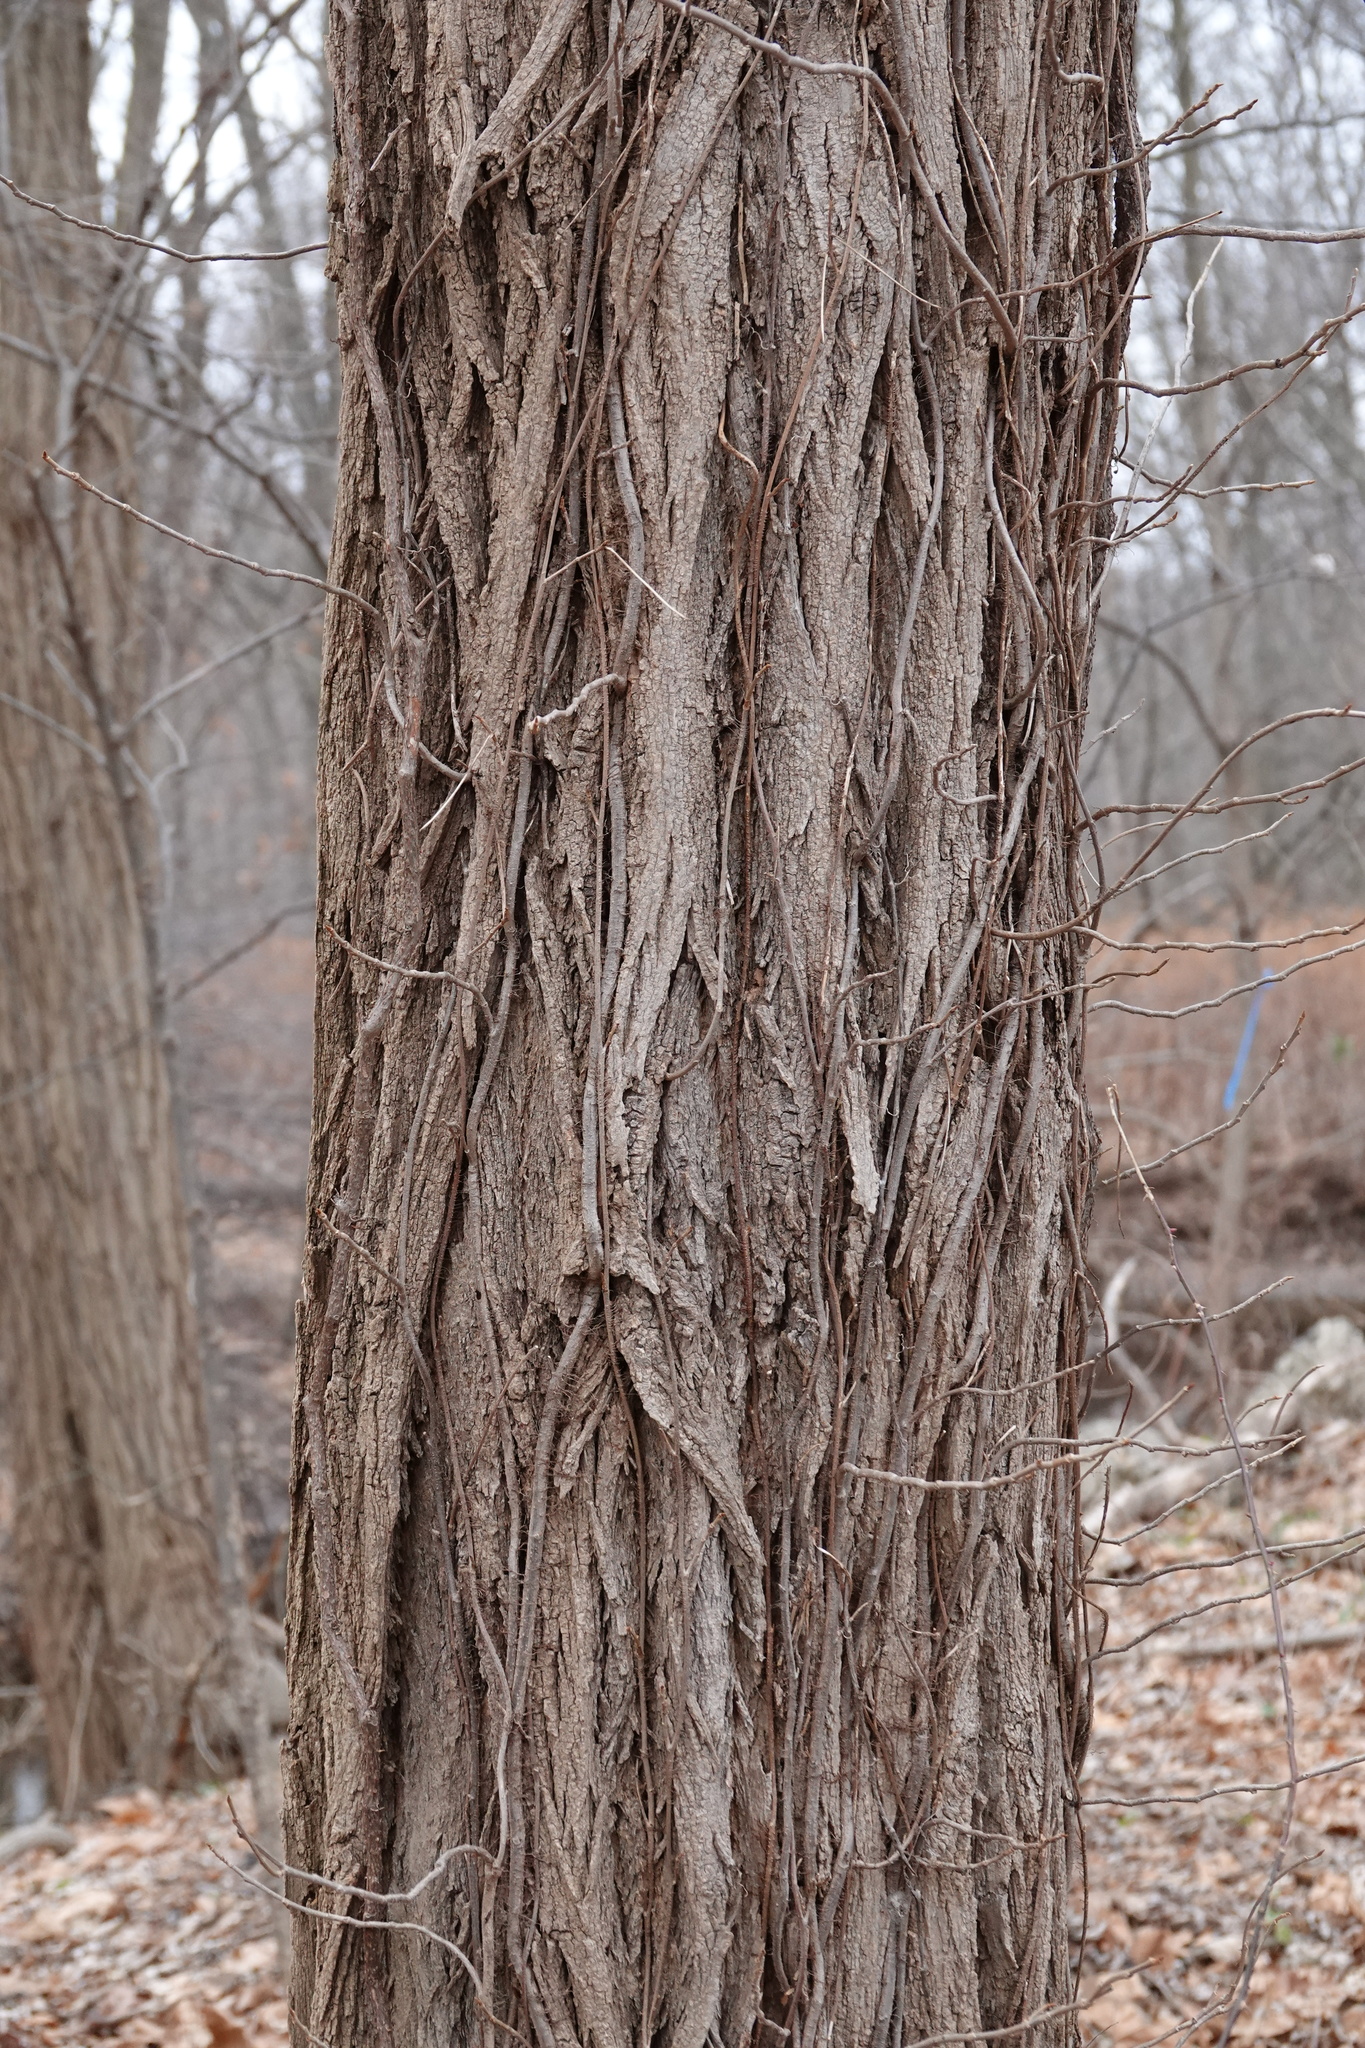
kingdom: Plantae
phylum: Tracheophyta
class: Magnoliopsida
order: Fabales
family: Fabaceae
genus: Robinia
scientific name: Robinia pseudoacacia
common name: Black locust
